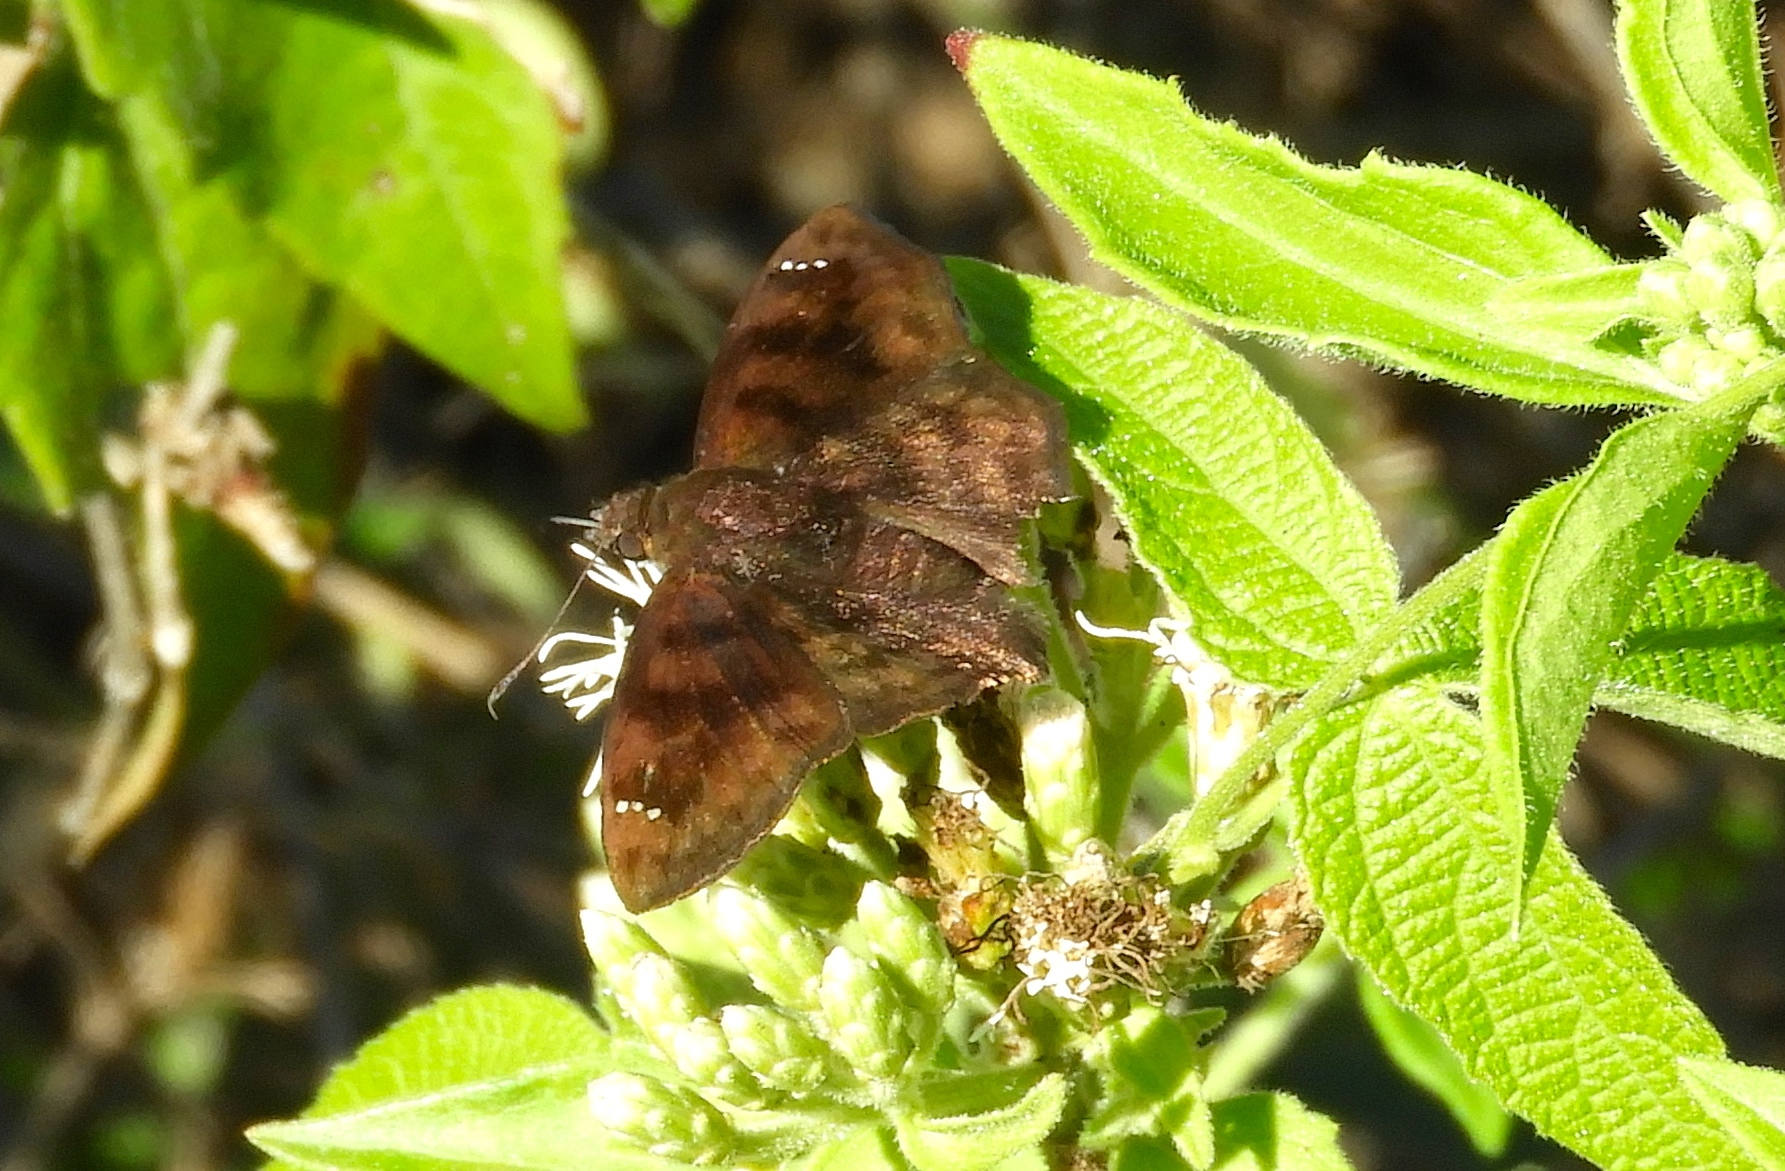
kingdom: Animalia
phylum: Arthropoda
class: Insecta
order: Lepidoptera
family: Hesperiidae
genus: Pellicia
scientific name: Pellicia
